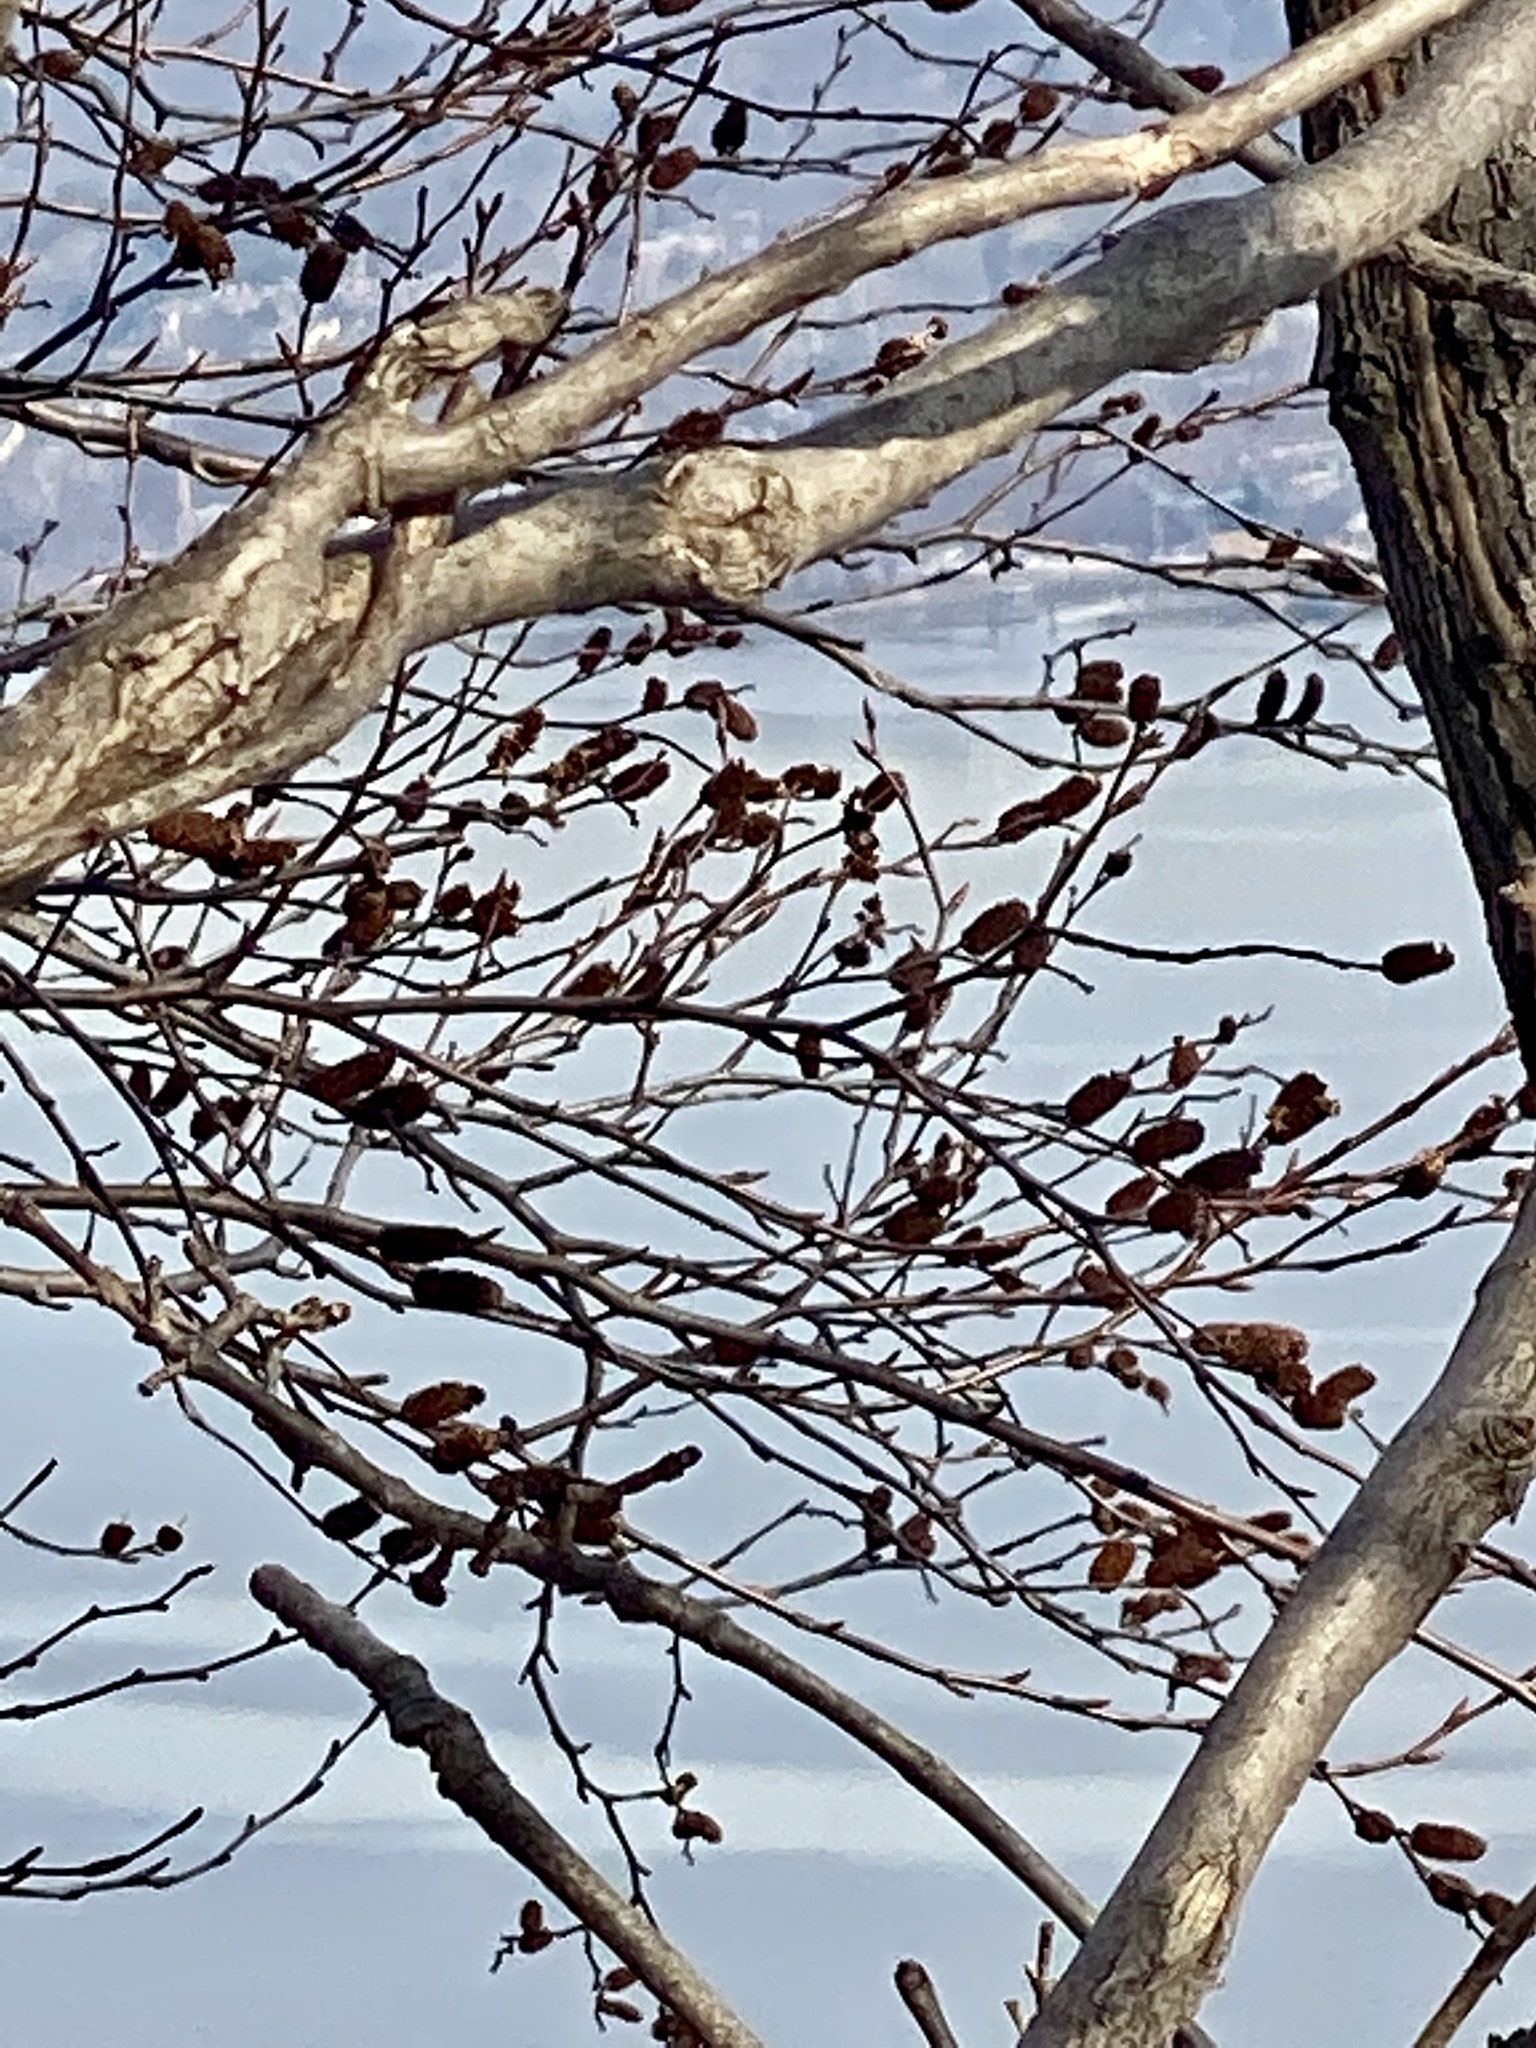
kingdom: Plantae
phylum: Tracheophyta
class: Magnoliopsida
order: Fagales
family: Betulaceae
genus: Betula
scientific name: Betula lenta
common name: Black birch
